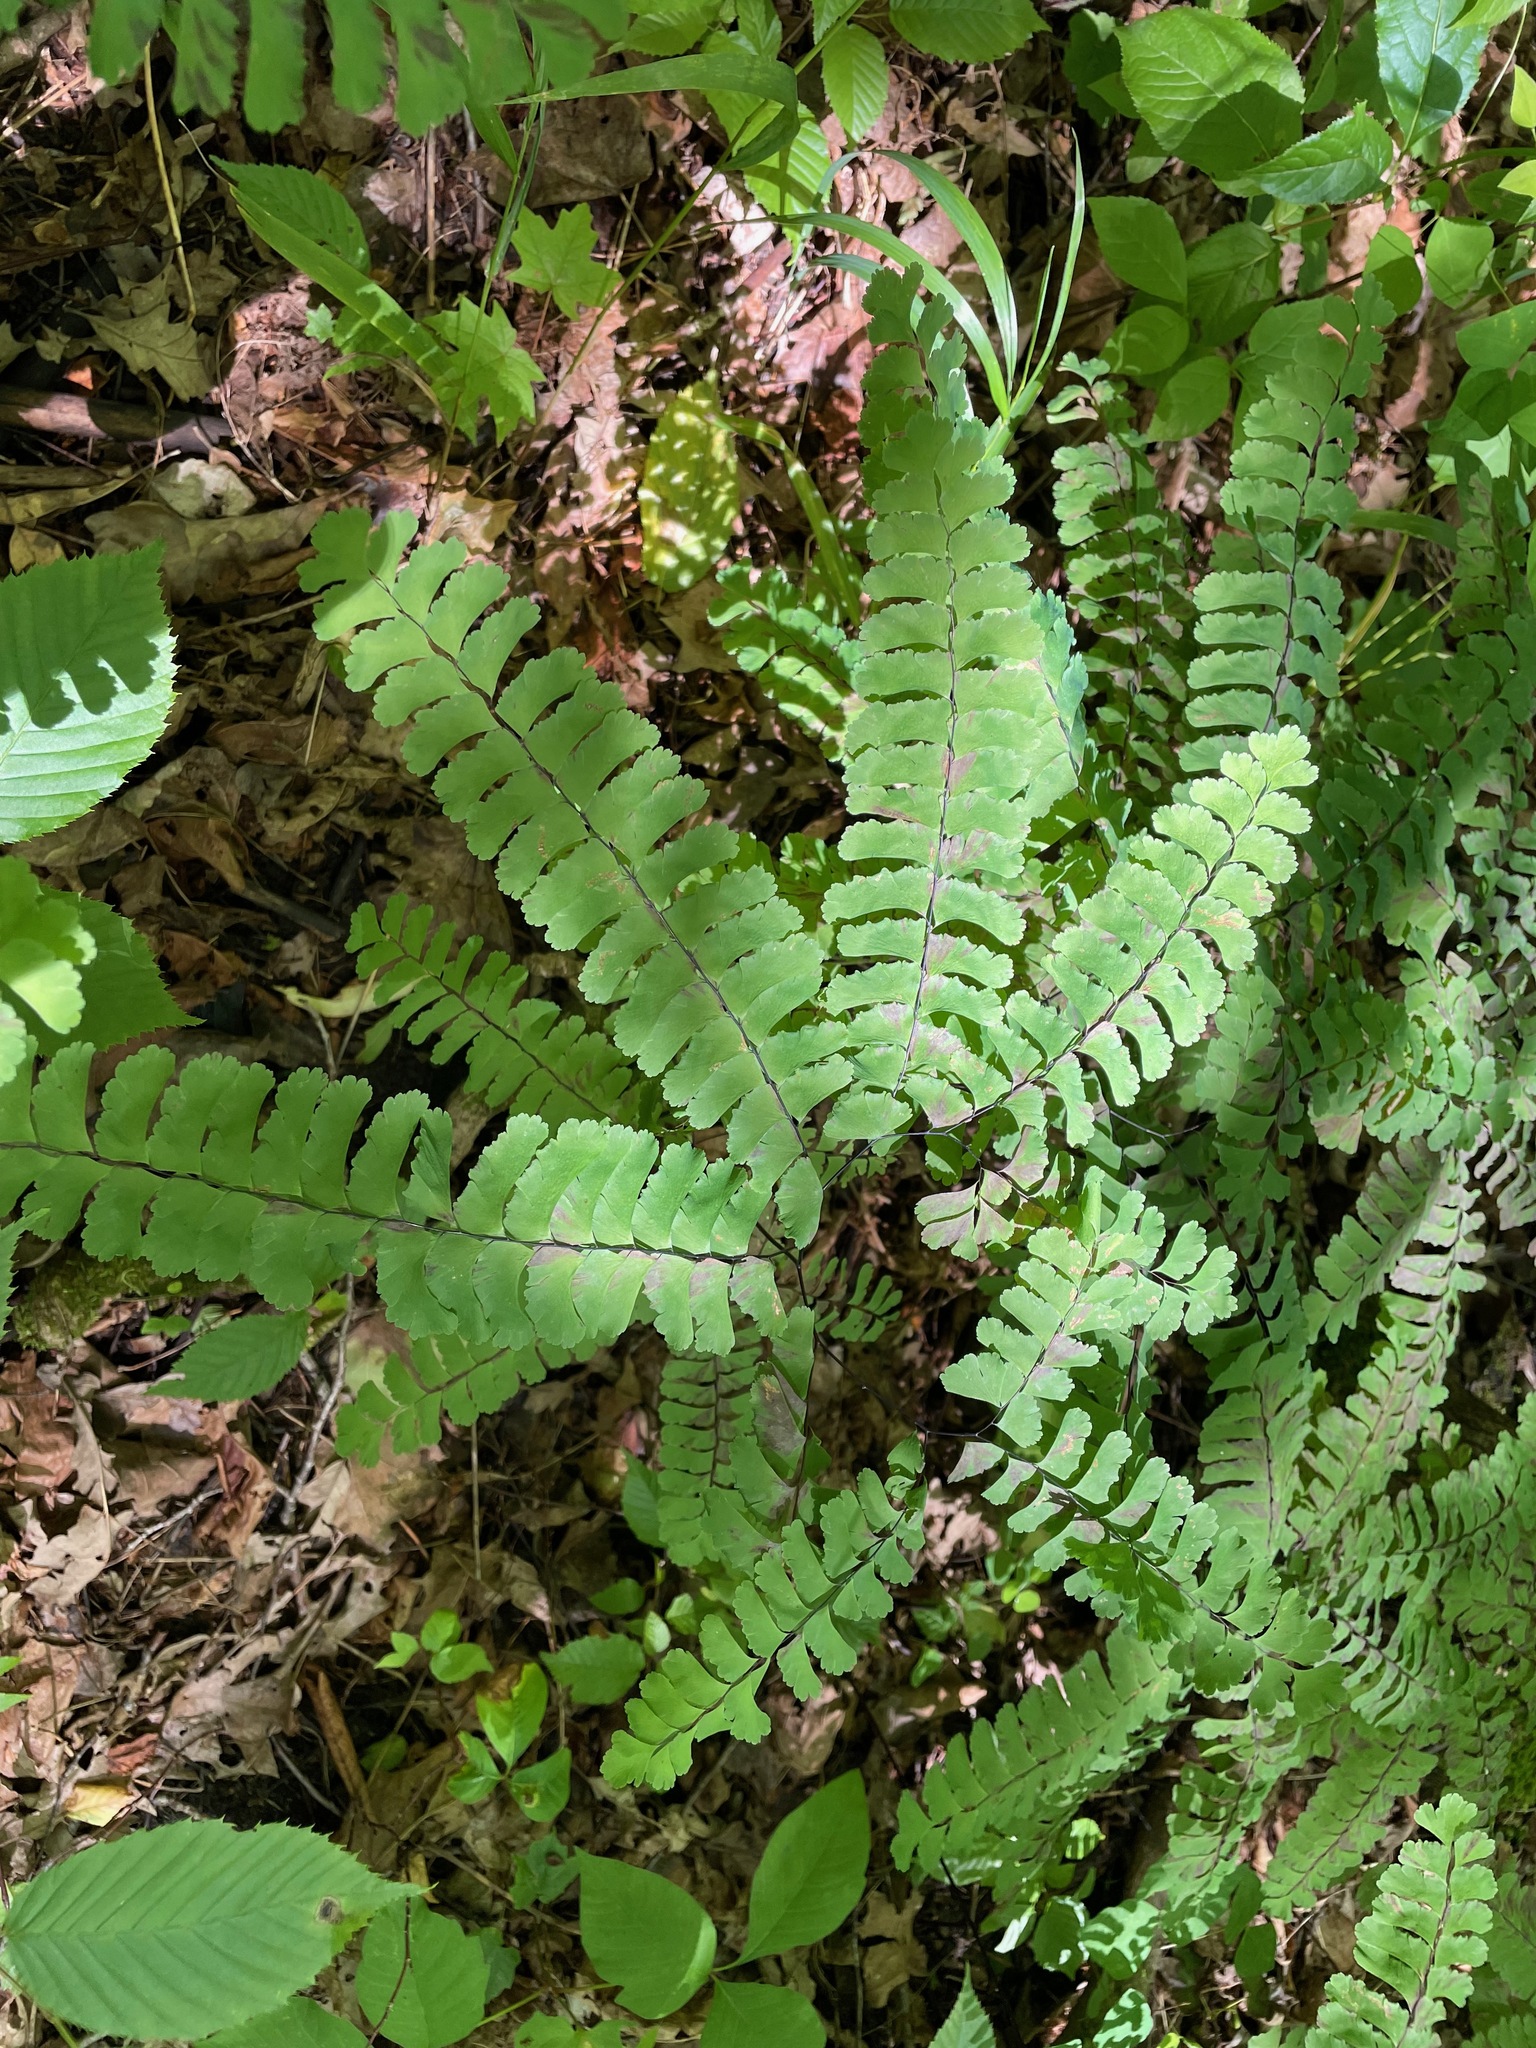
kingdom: Plantae
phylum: Tracheophyta
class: Polypodiopsida
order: Polypodiales
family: Pteridaceae
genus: Adiantum
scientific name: Adiantum pedatum
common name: Five-finger fern
